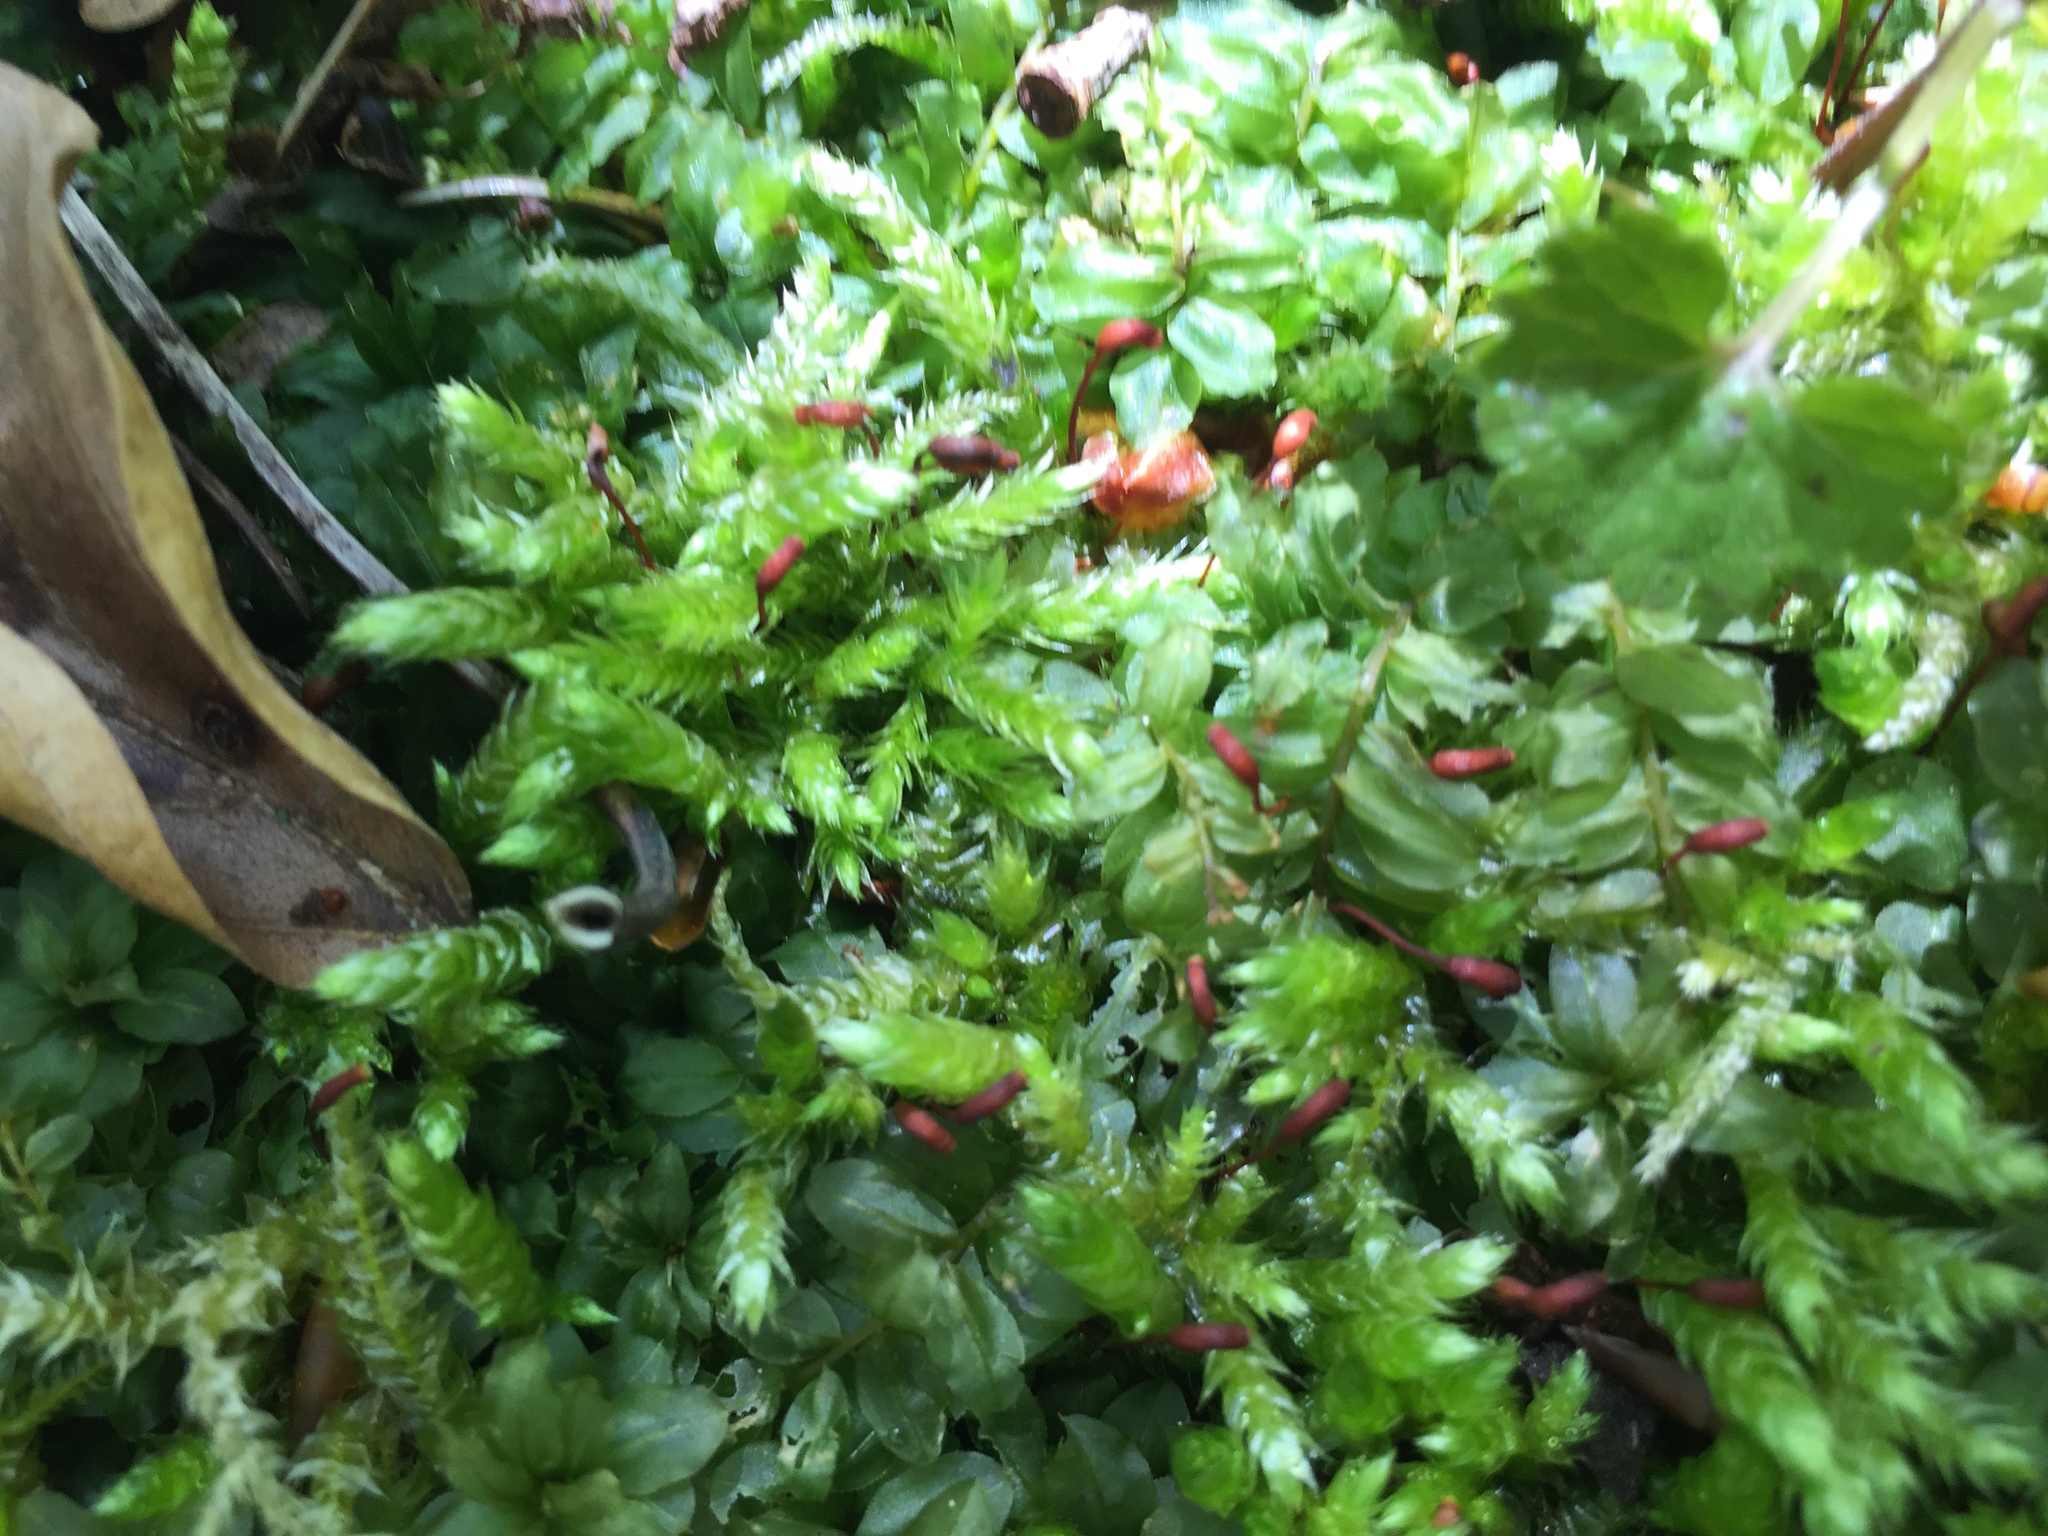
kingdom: Plantae
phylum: Bryophyta
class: Bryopsida
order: Bryales
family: Mniaceae
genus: Plagiomnium
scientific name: Plagiomnium affine
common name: Many-fruited thyme-moss
